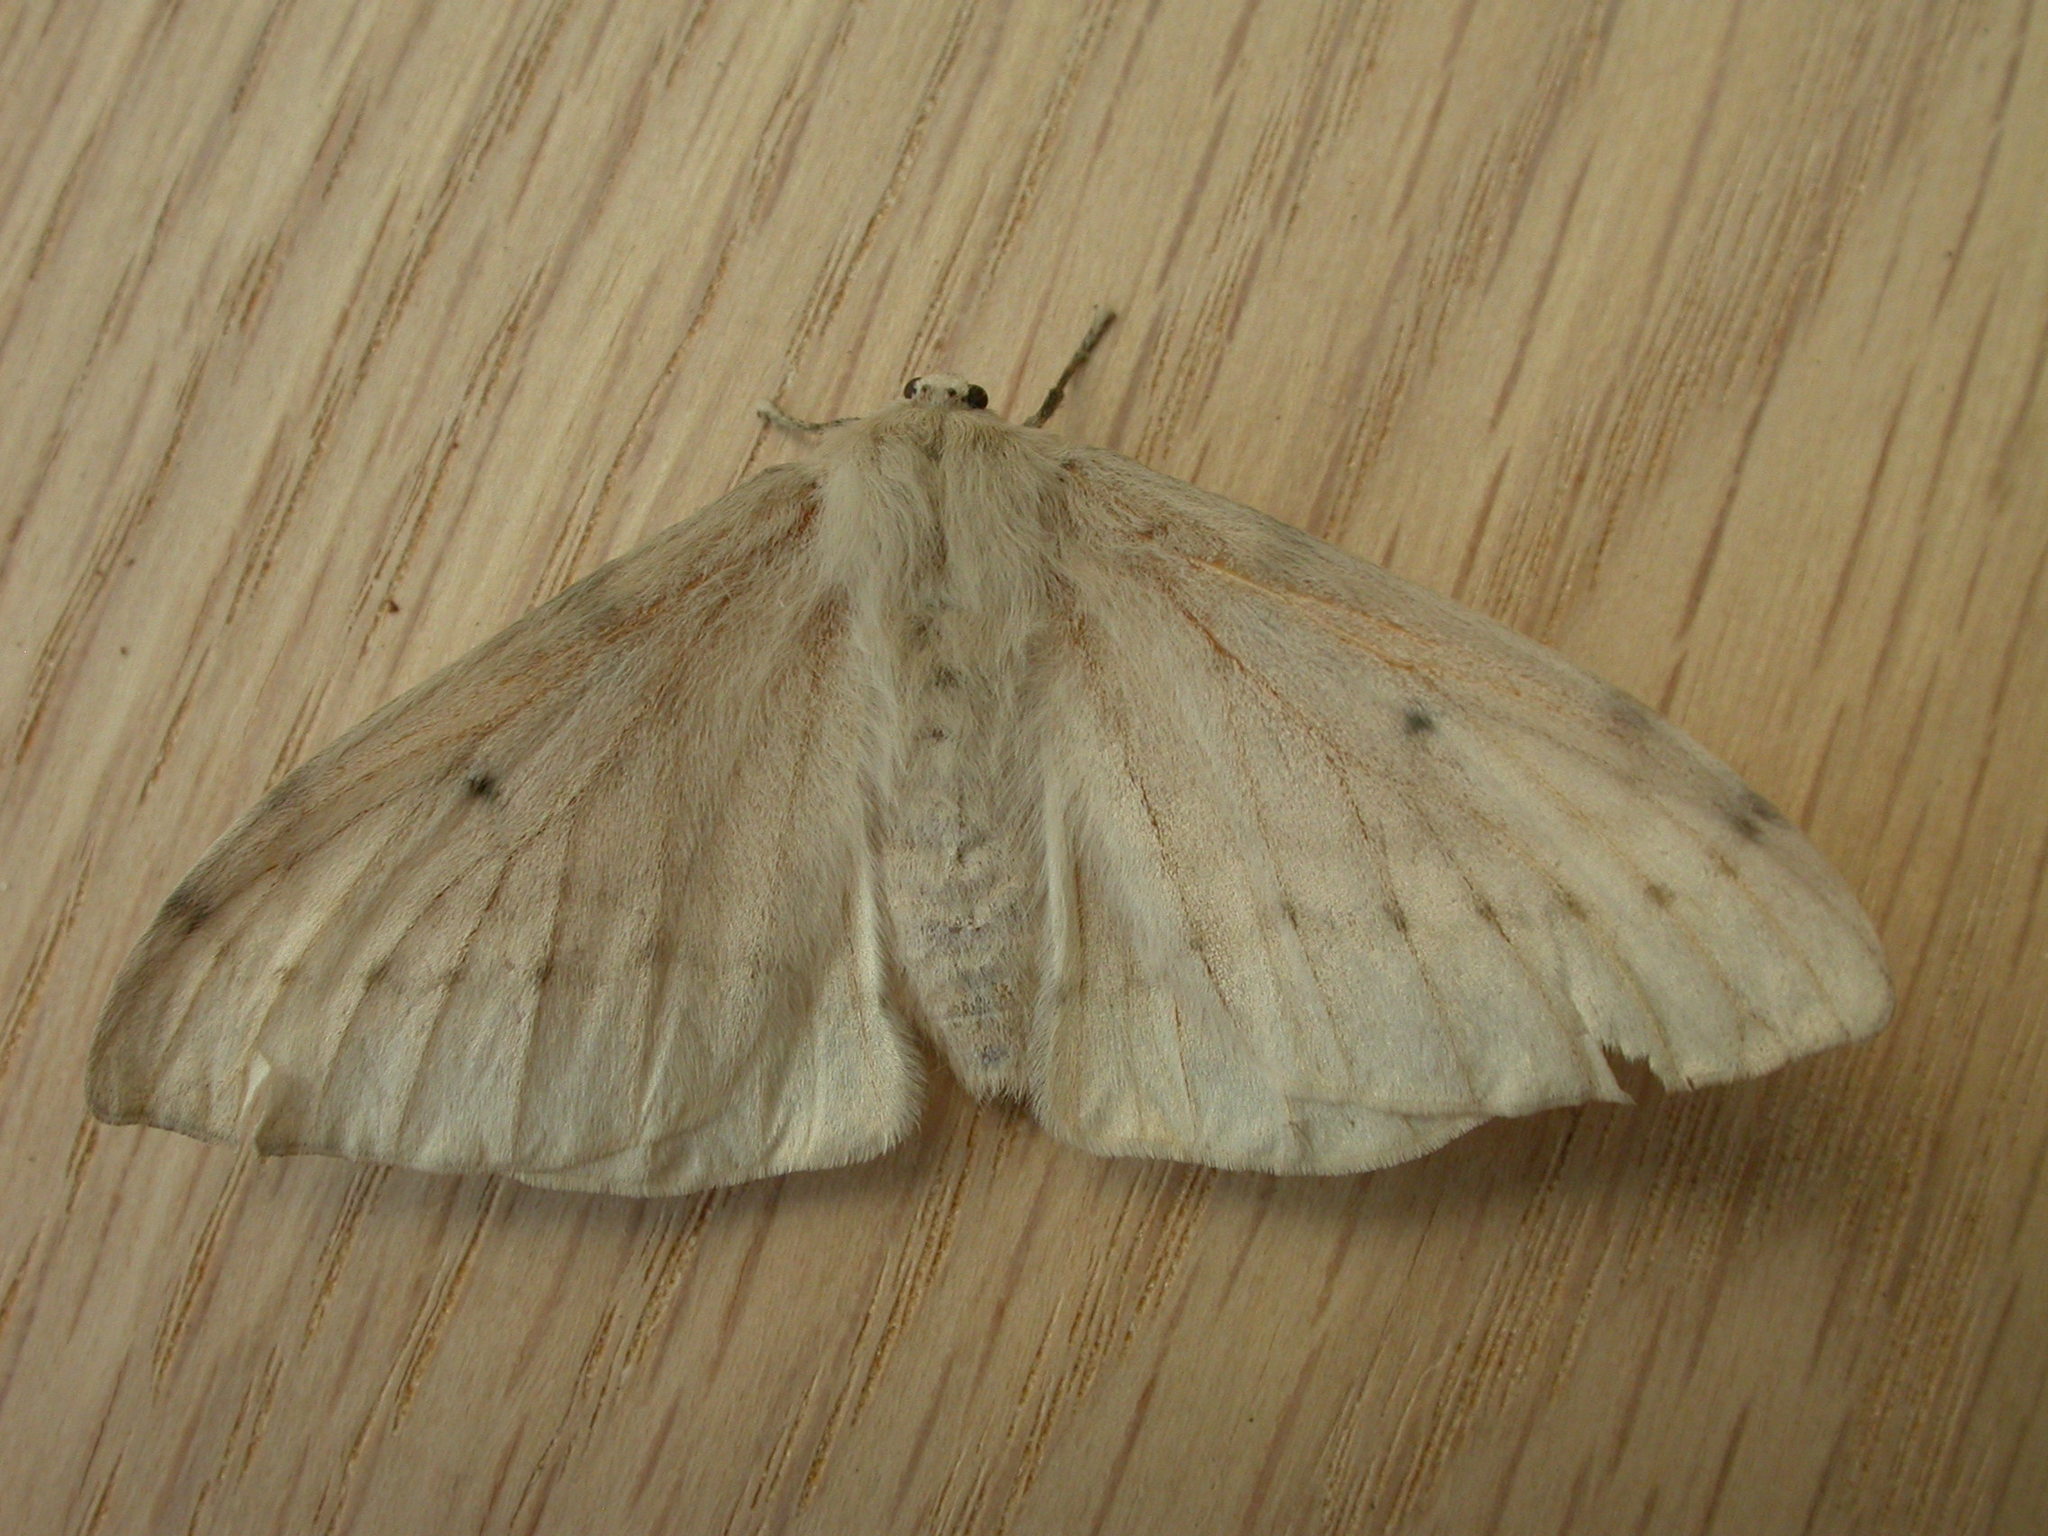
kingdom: Animalia
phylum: Arthropoda
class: Insecta
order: Lepidoptera
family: Anthelidae
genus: Chenuala
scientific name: Chenuala heliaspis
